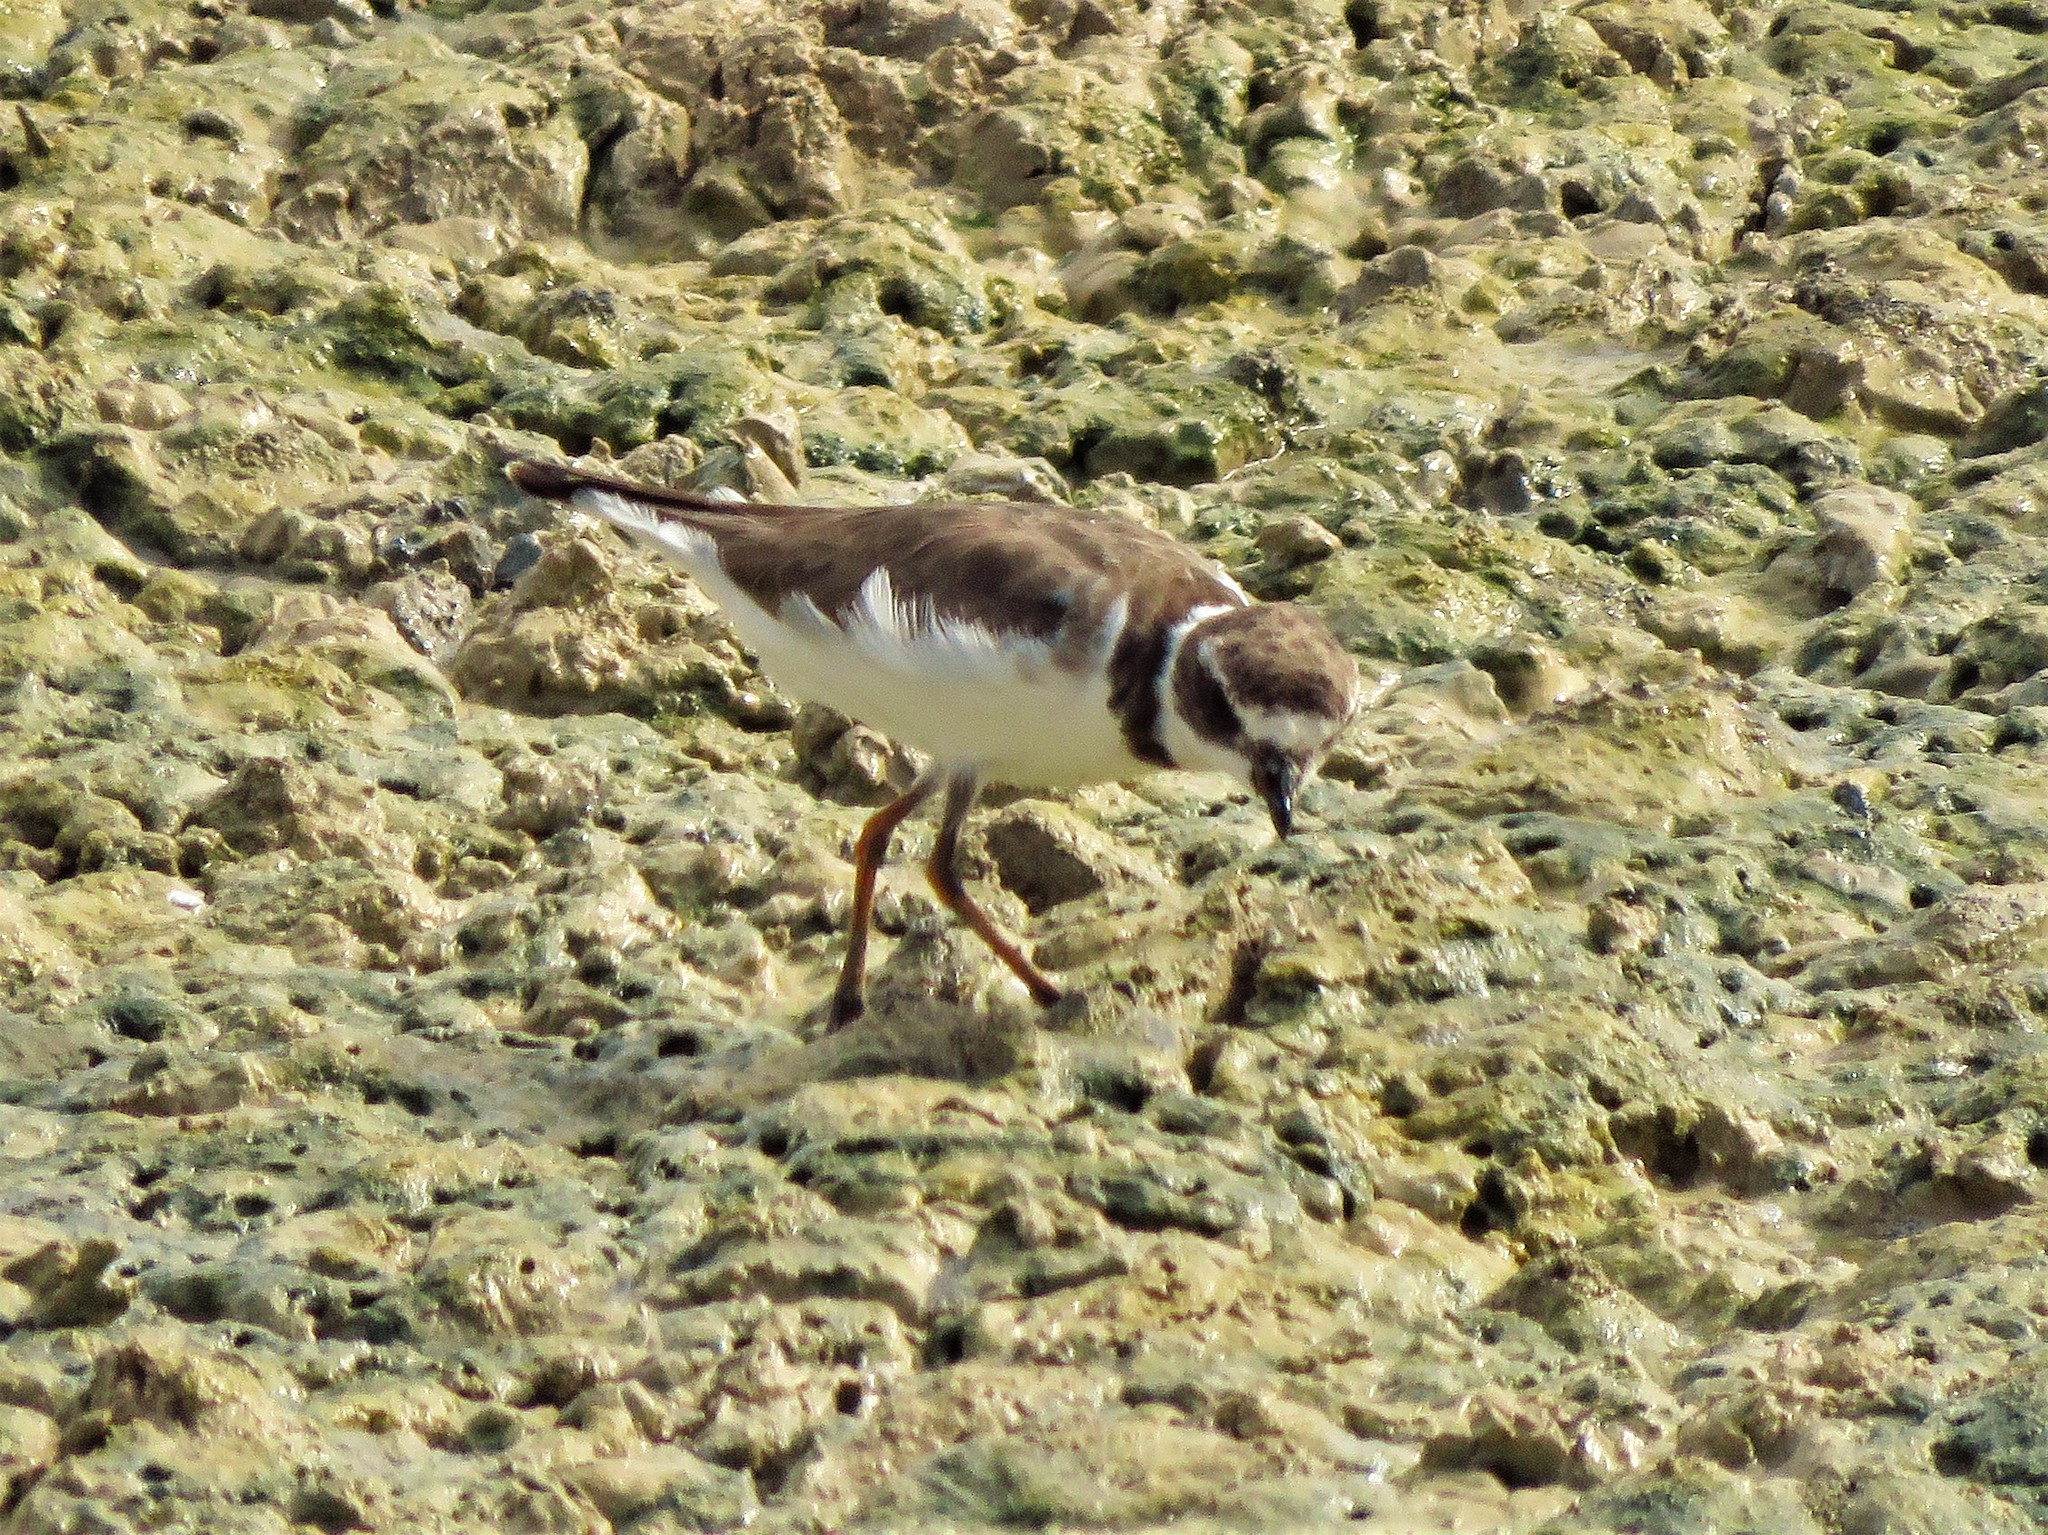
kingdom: Animalia
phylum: Chordata
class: Aves
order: Charadriiformes
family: Charadriidae
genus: Charadrius
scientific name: Charadrius semipalmatus
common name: Semipalmated plover
